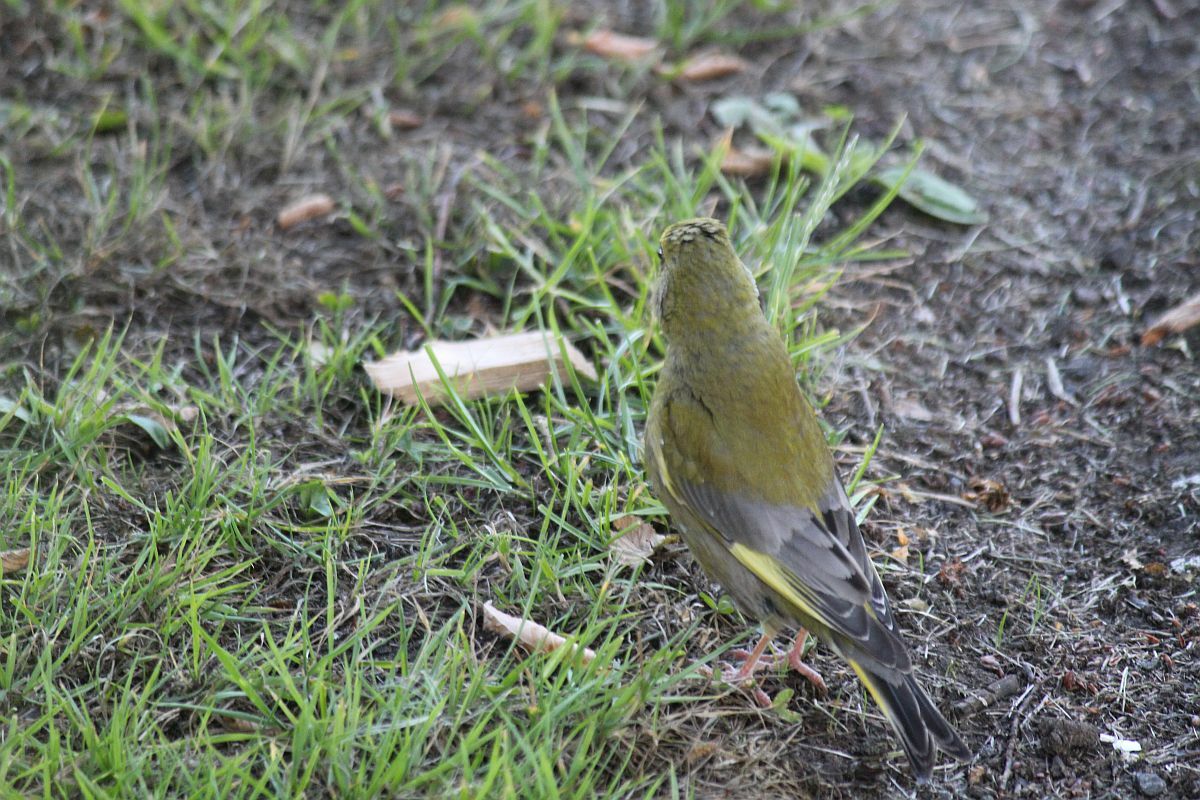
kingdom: Plantae
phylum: Tracheophyta
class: Liliopsida
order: Poales
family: Poaceae
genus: Chloris
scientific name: Chloris chloris
